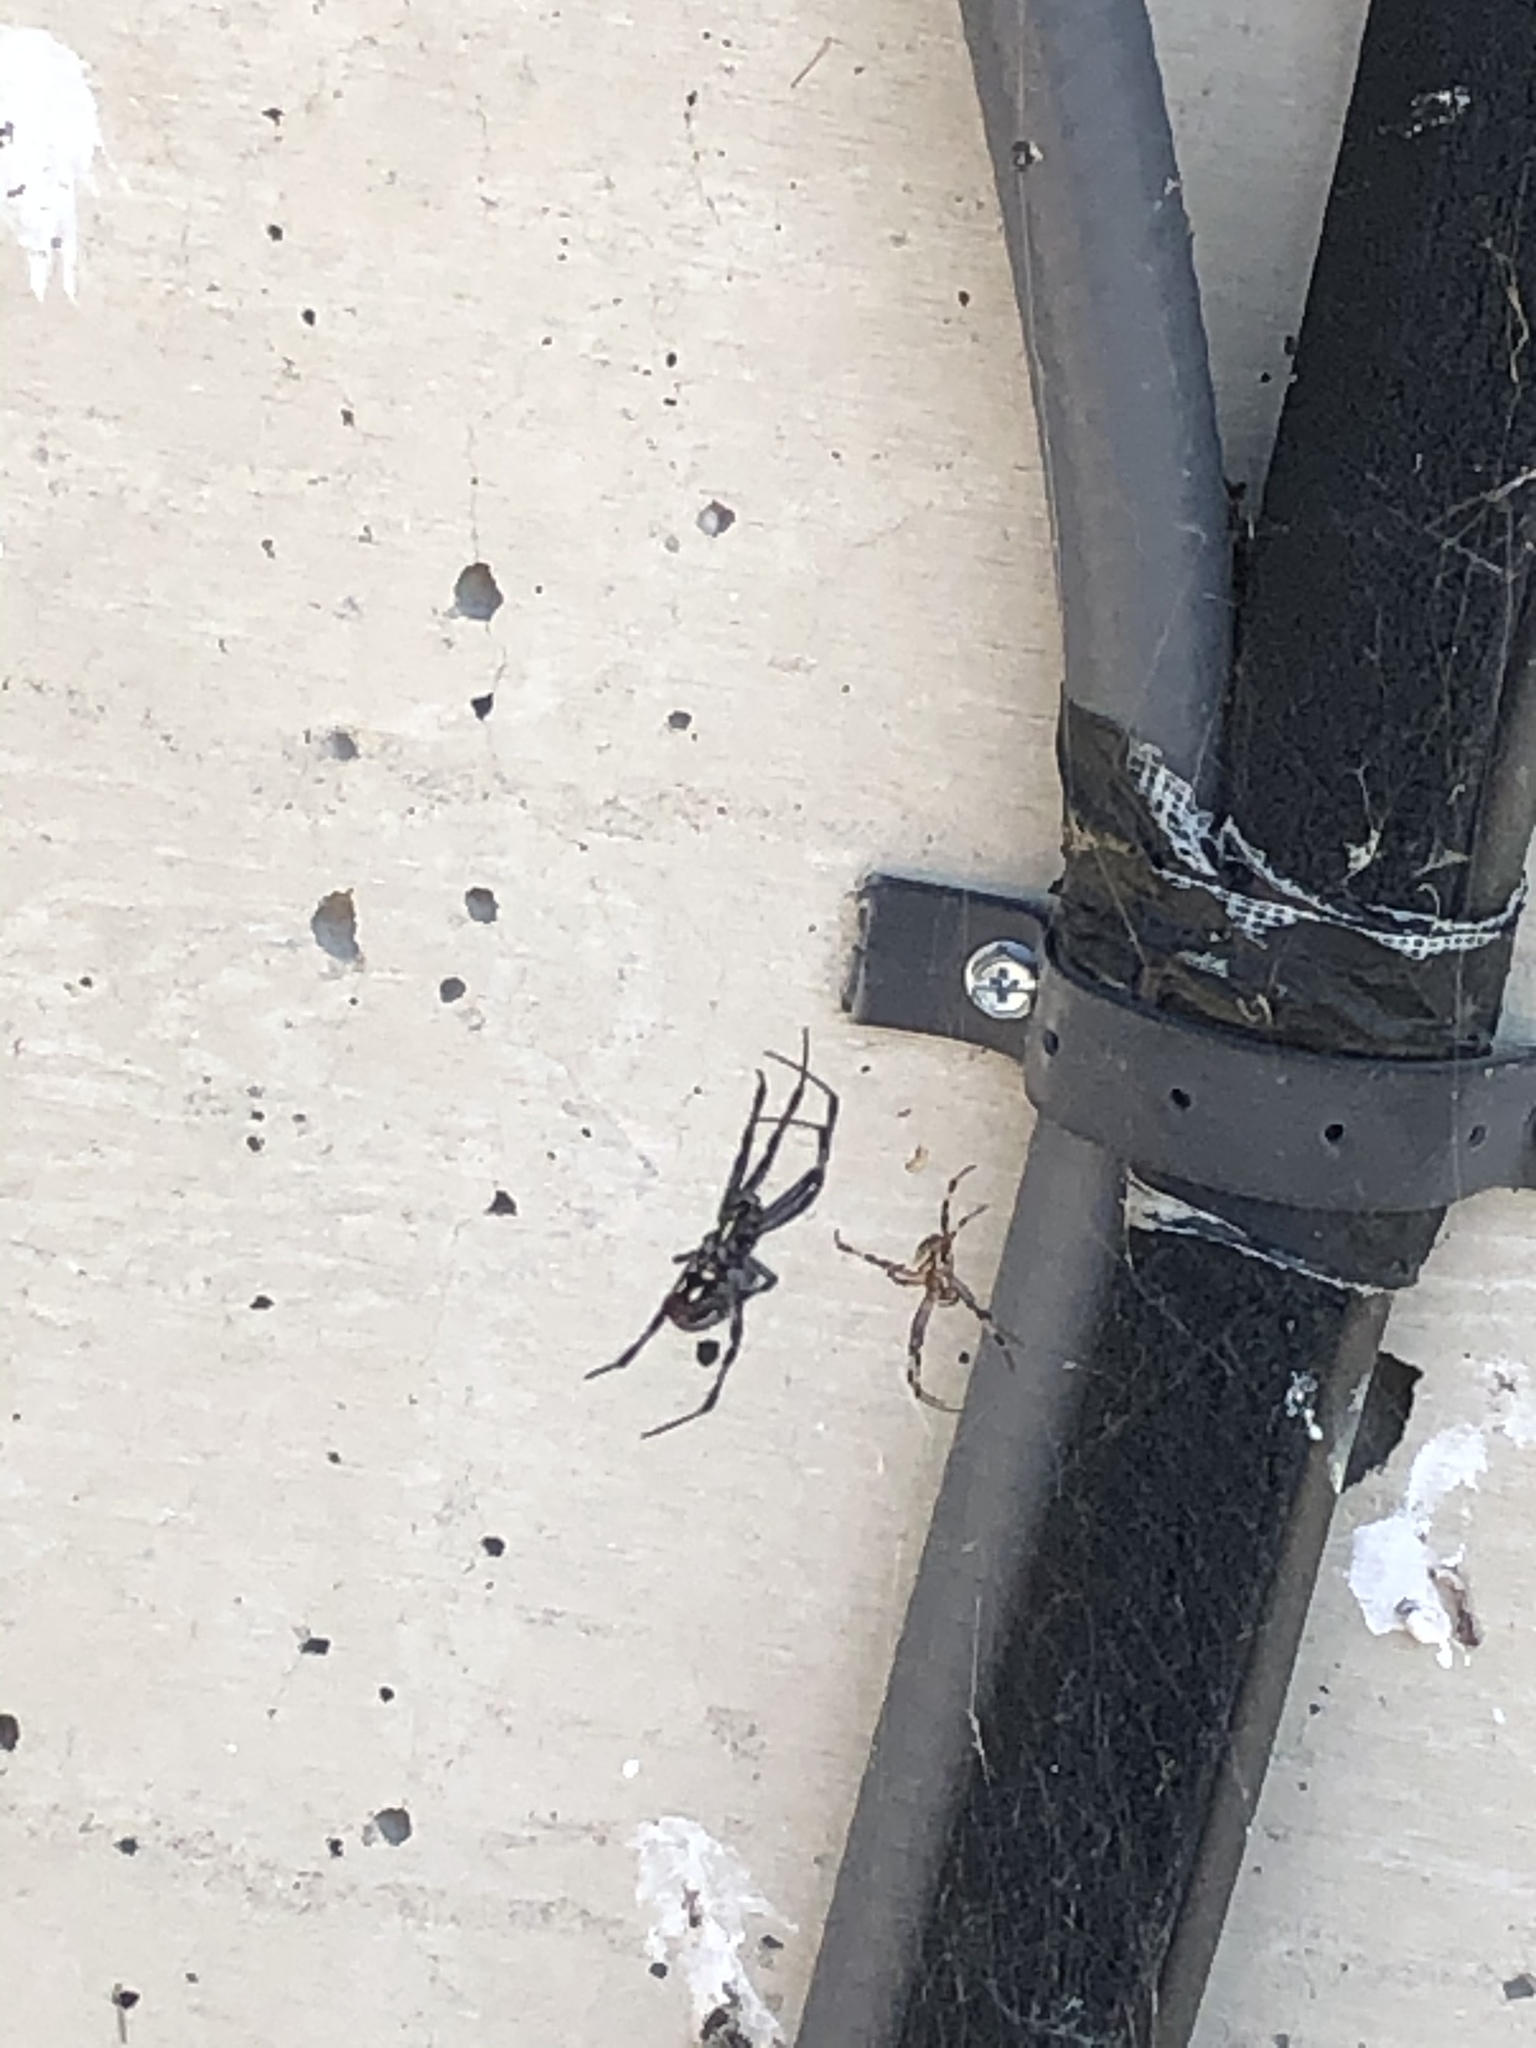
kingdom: Animalia
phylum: Arthropoda
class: Arachnida
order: Araneae
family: Araneidae
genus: Neoscona
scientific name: Neoscona oaxacensis
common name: Orb weavers
